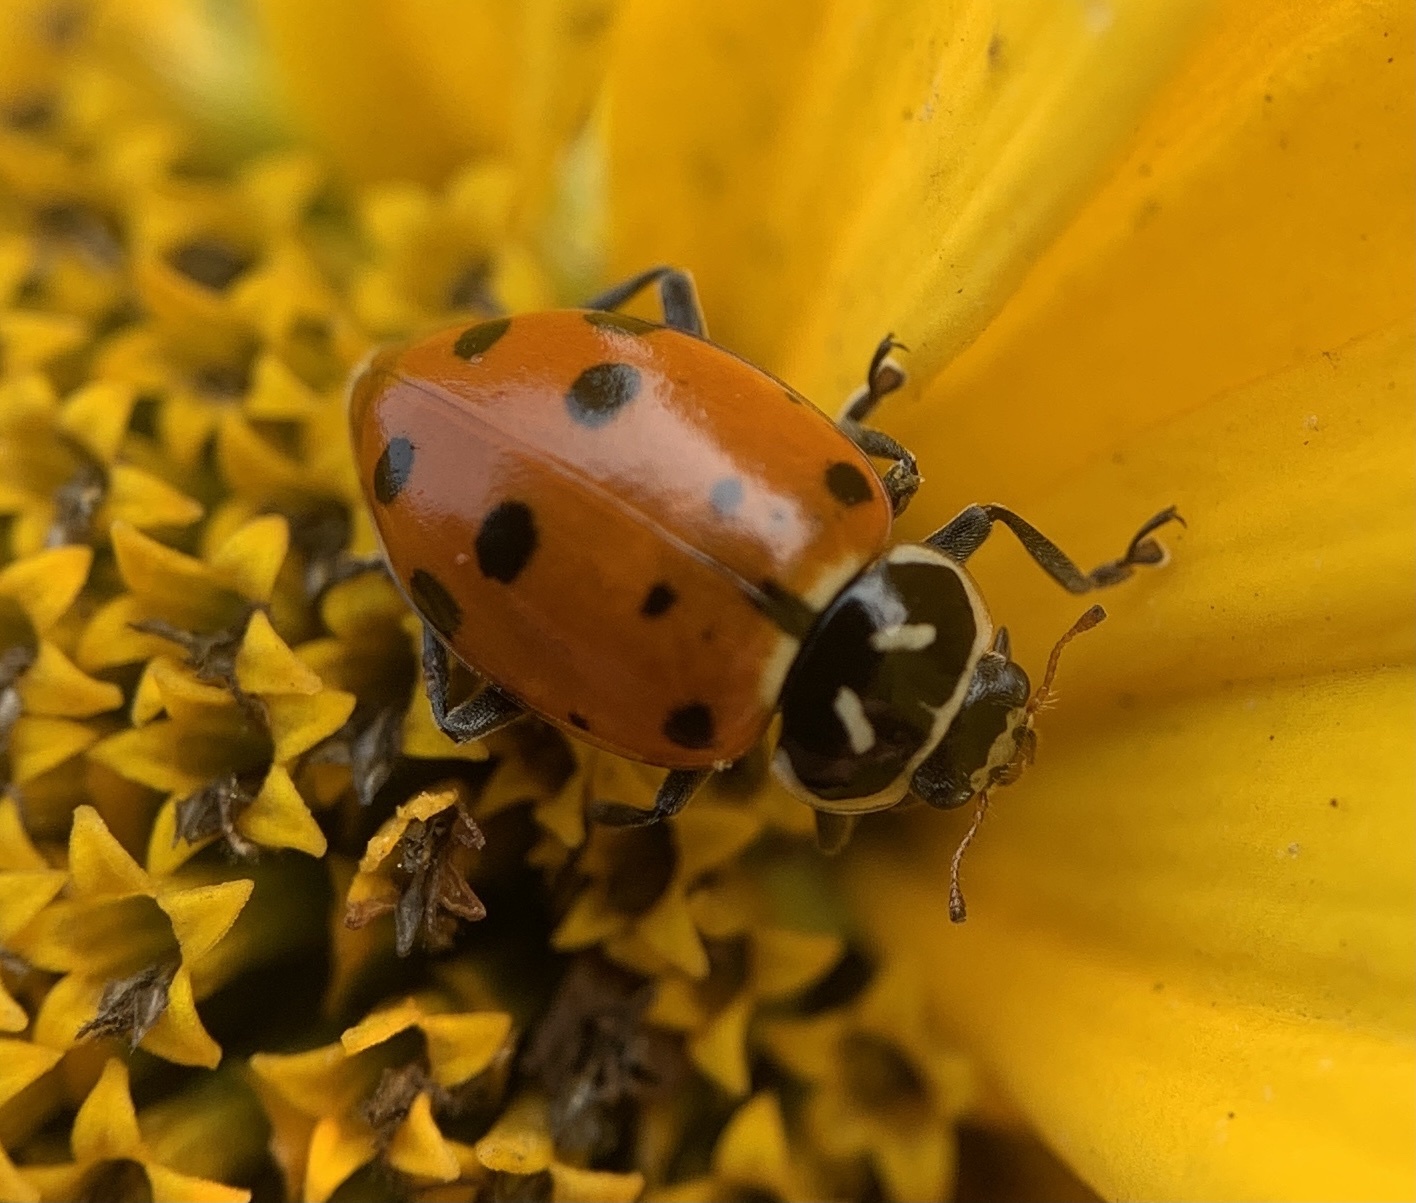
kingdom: Animalia
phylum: Arthropoda
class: Insecta
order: Coleoptera
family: Coccinellidae
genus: Hippodamia
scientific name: Hippodamia convergens
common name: Convergent lady beetle
